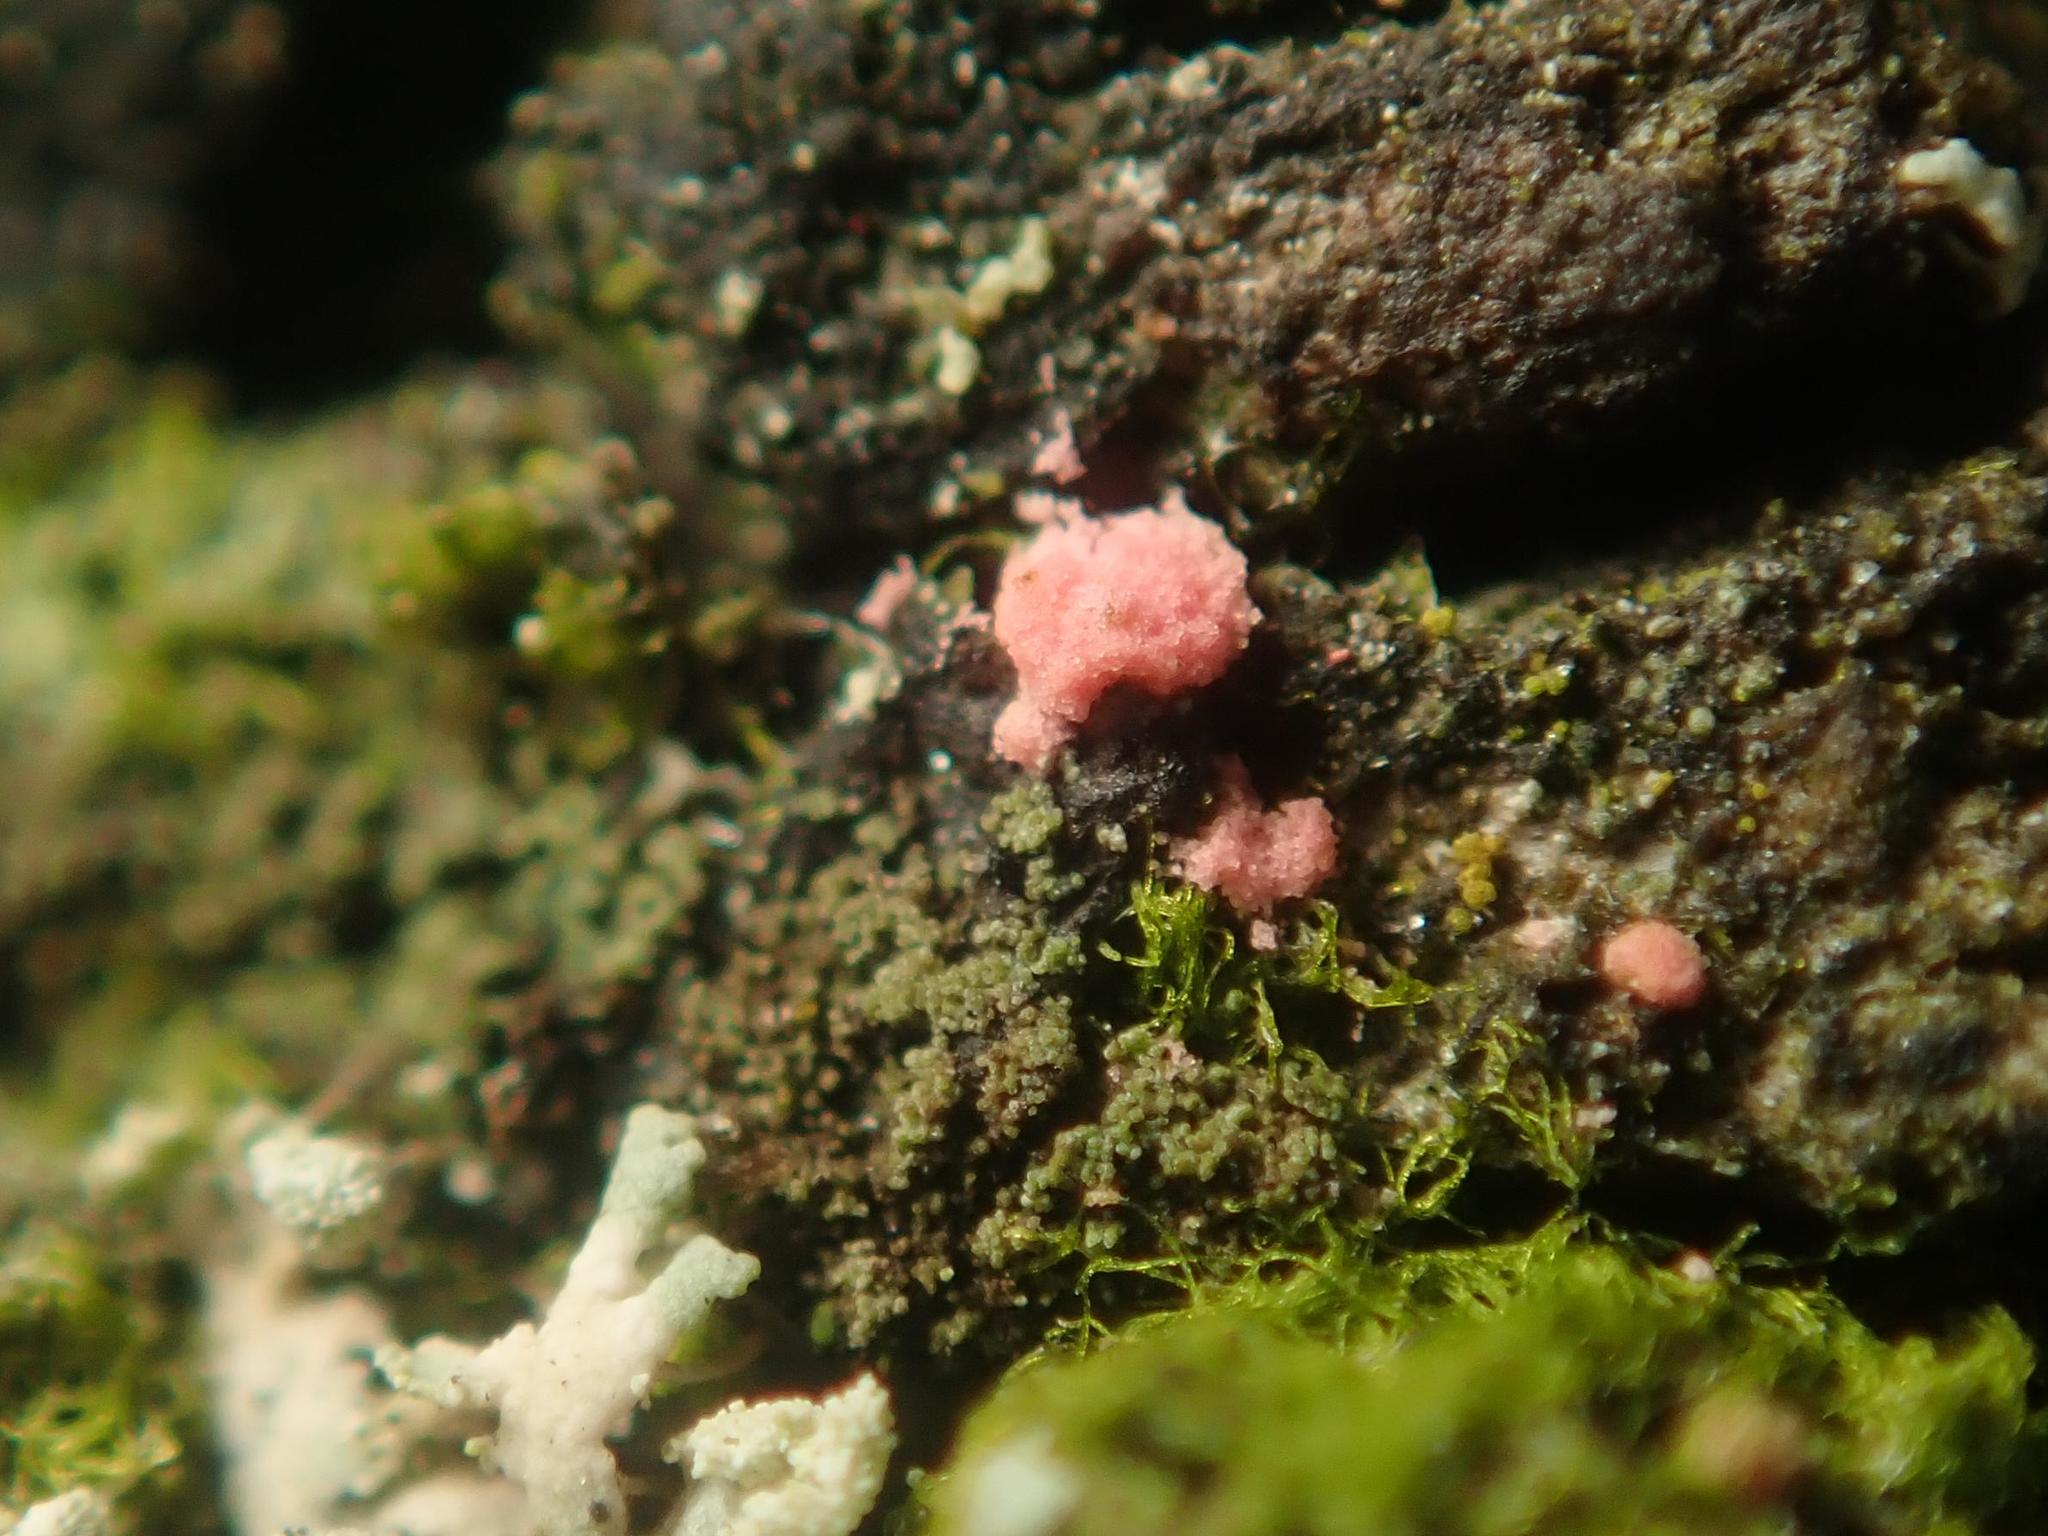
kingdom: Fungi
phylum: Ascomycota
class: Sordariomycetes
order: Hypocreales
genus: Illosporiopsis
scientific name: Illosporiopsis christiansenii
